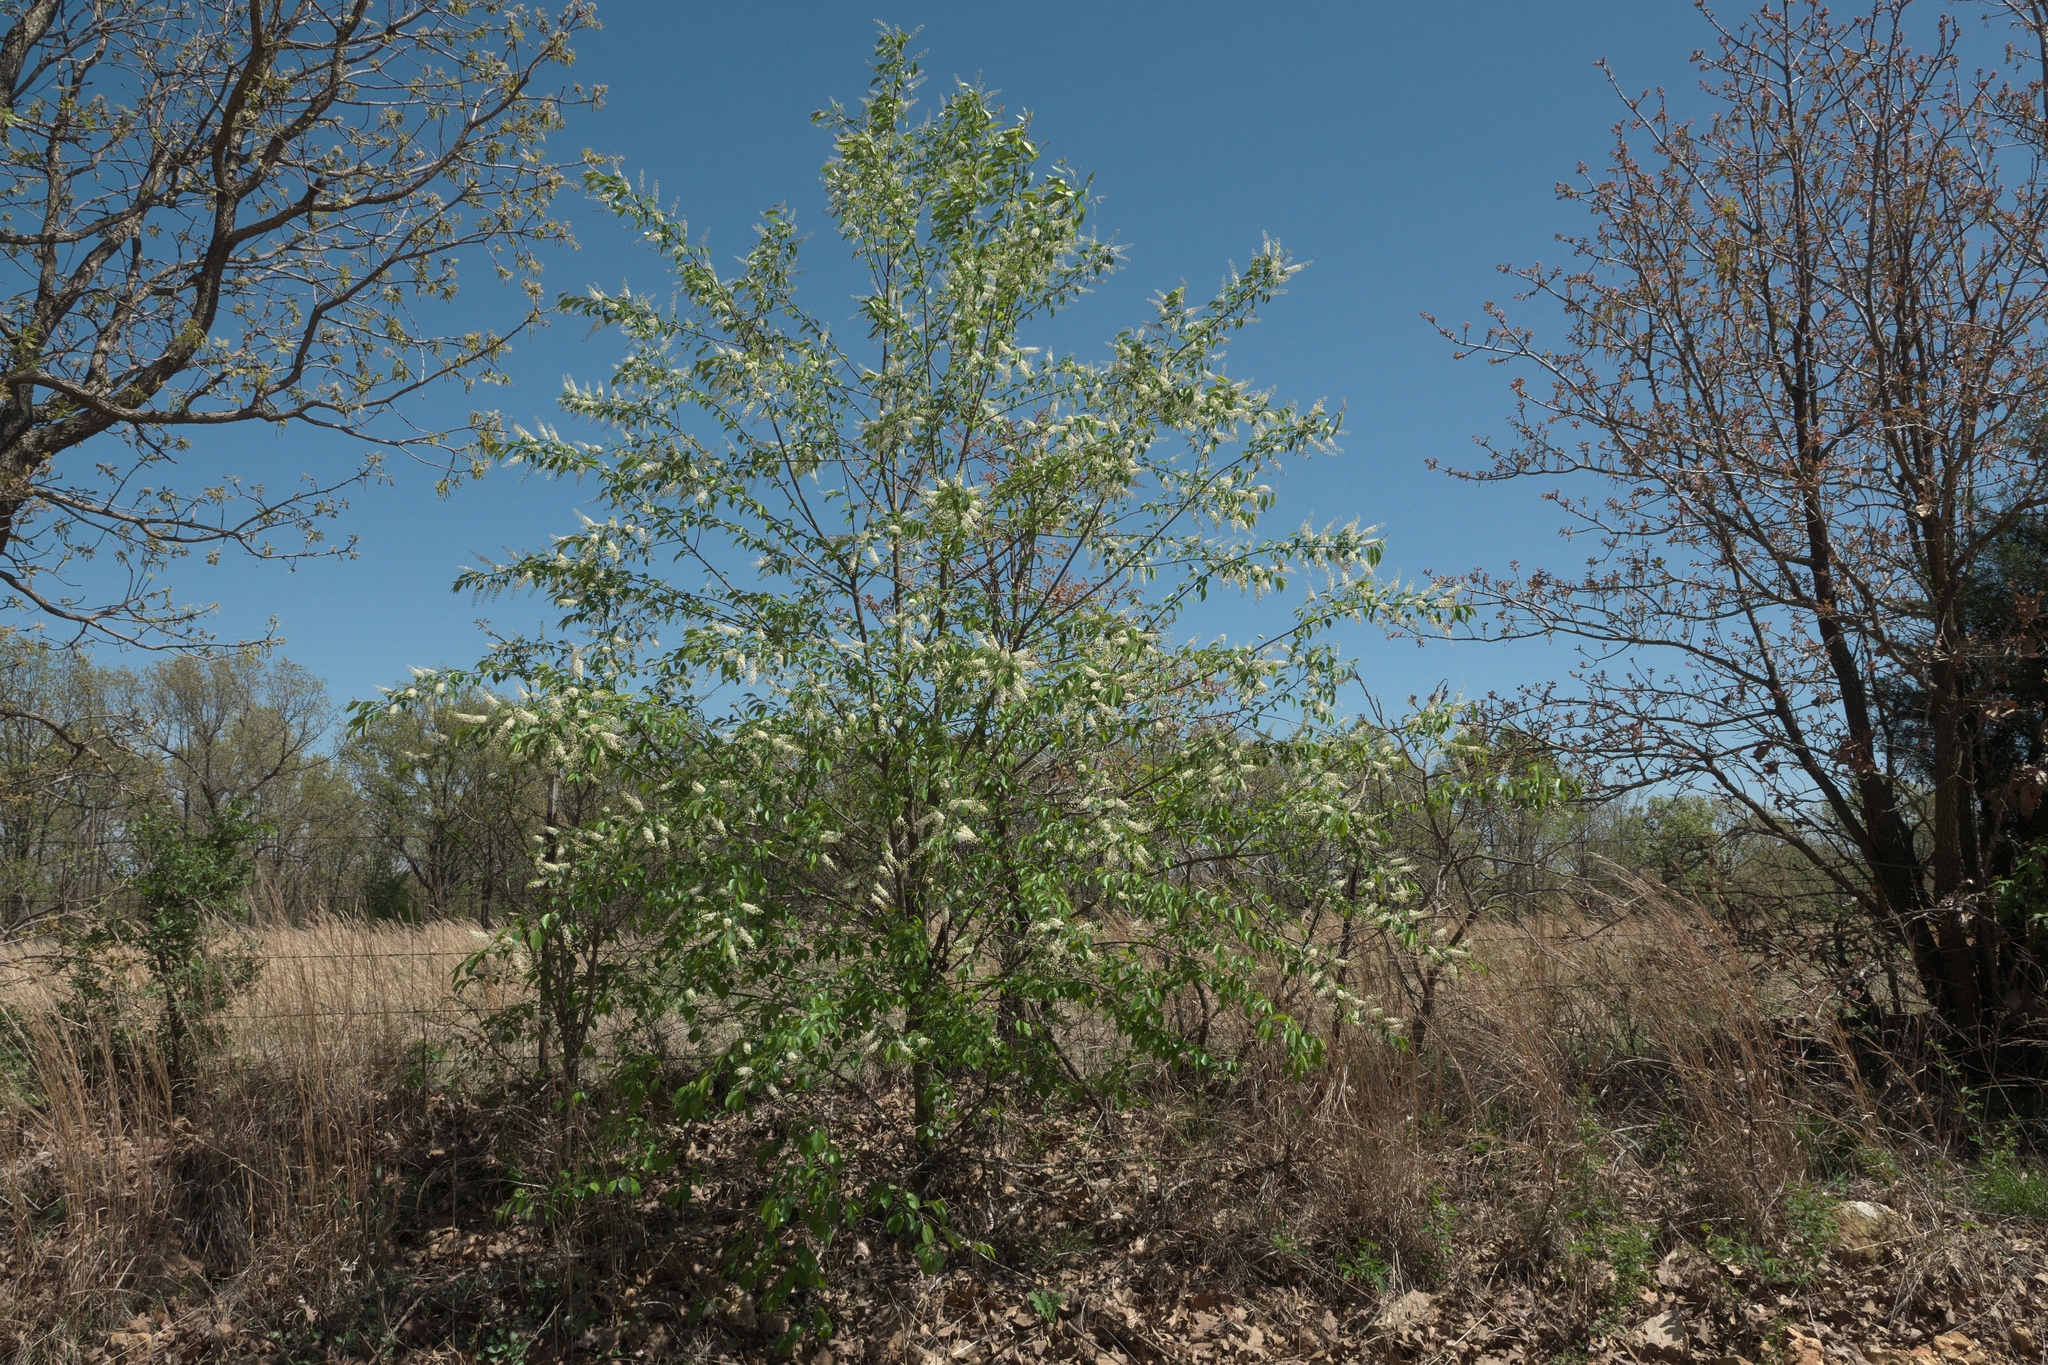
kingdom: Plantae
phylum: Tracheophyta
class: Magnoliopsida
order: Rosales
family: Rosaceae
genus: Prunus
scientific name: Prunus serotina
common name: Black cherry
